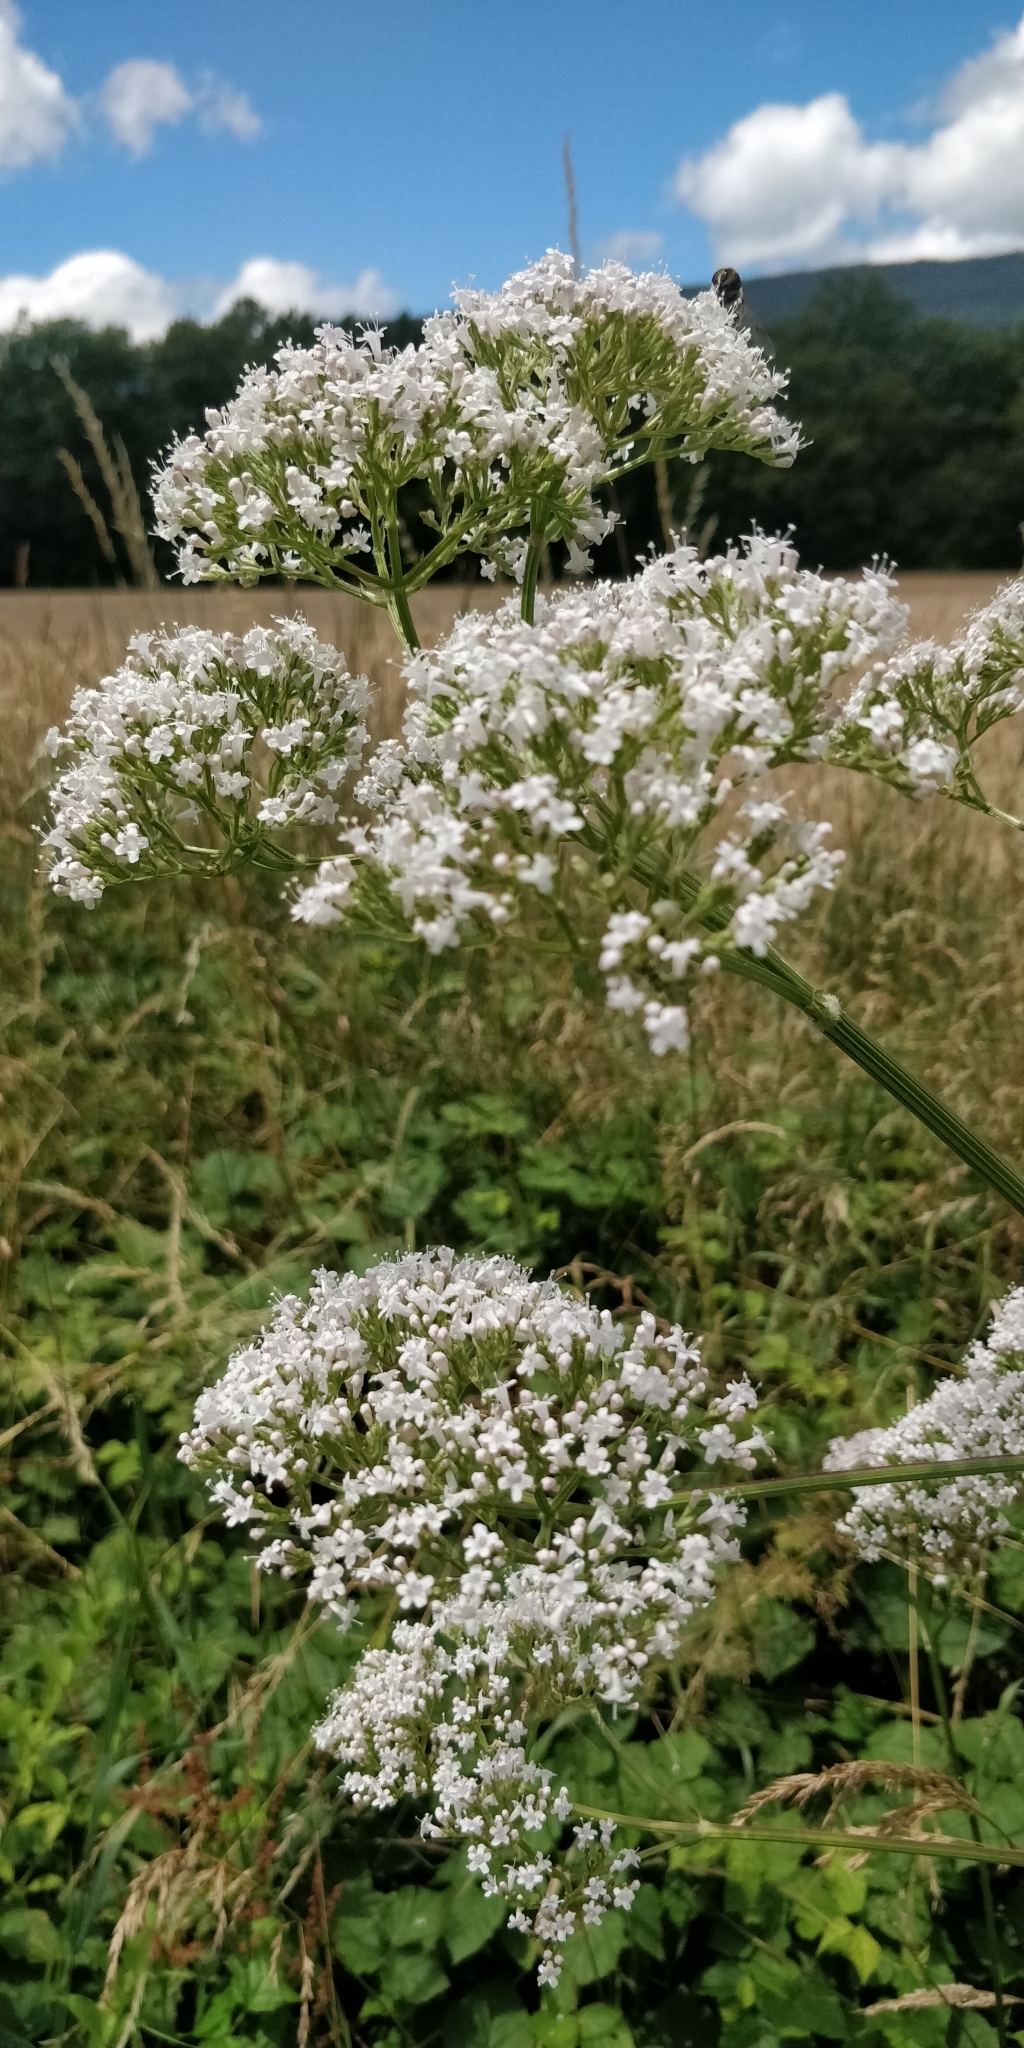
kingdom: Plantae
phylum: Tracheophyta
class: Magnoliopsida
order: Dipsacales
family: Caprifoliaceae
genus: Valeriana
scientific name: Valeriana officinalis
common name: Common valerian
